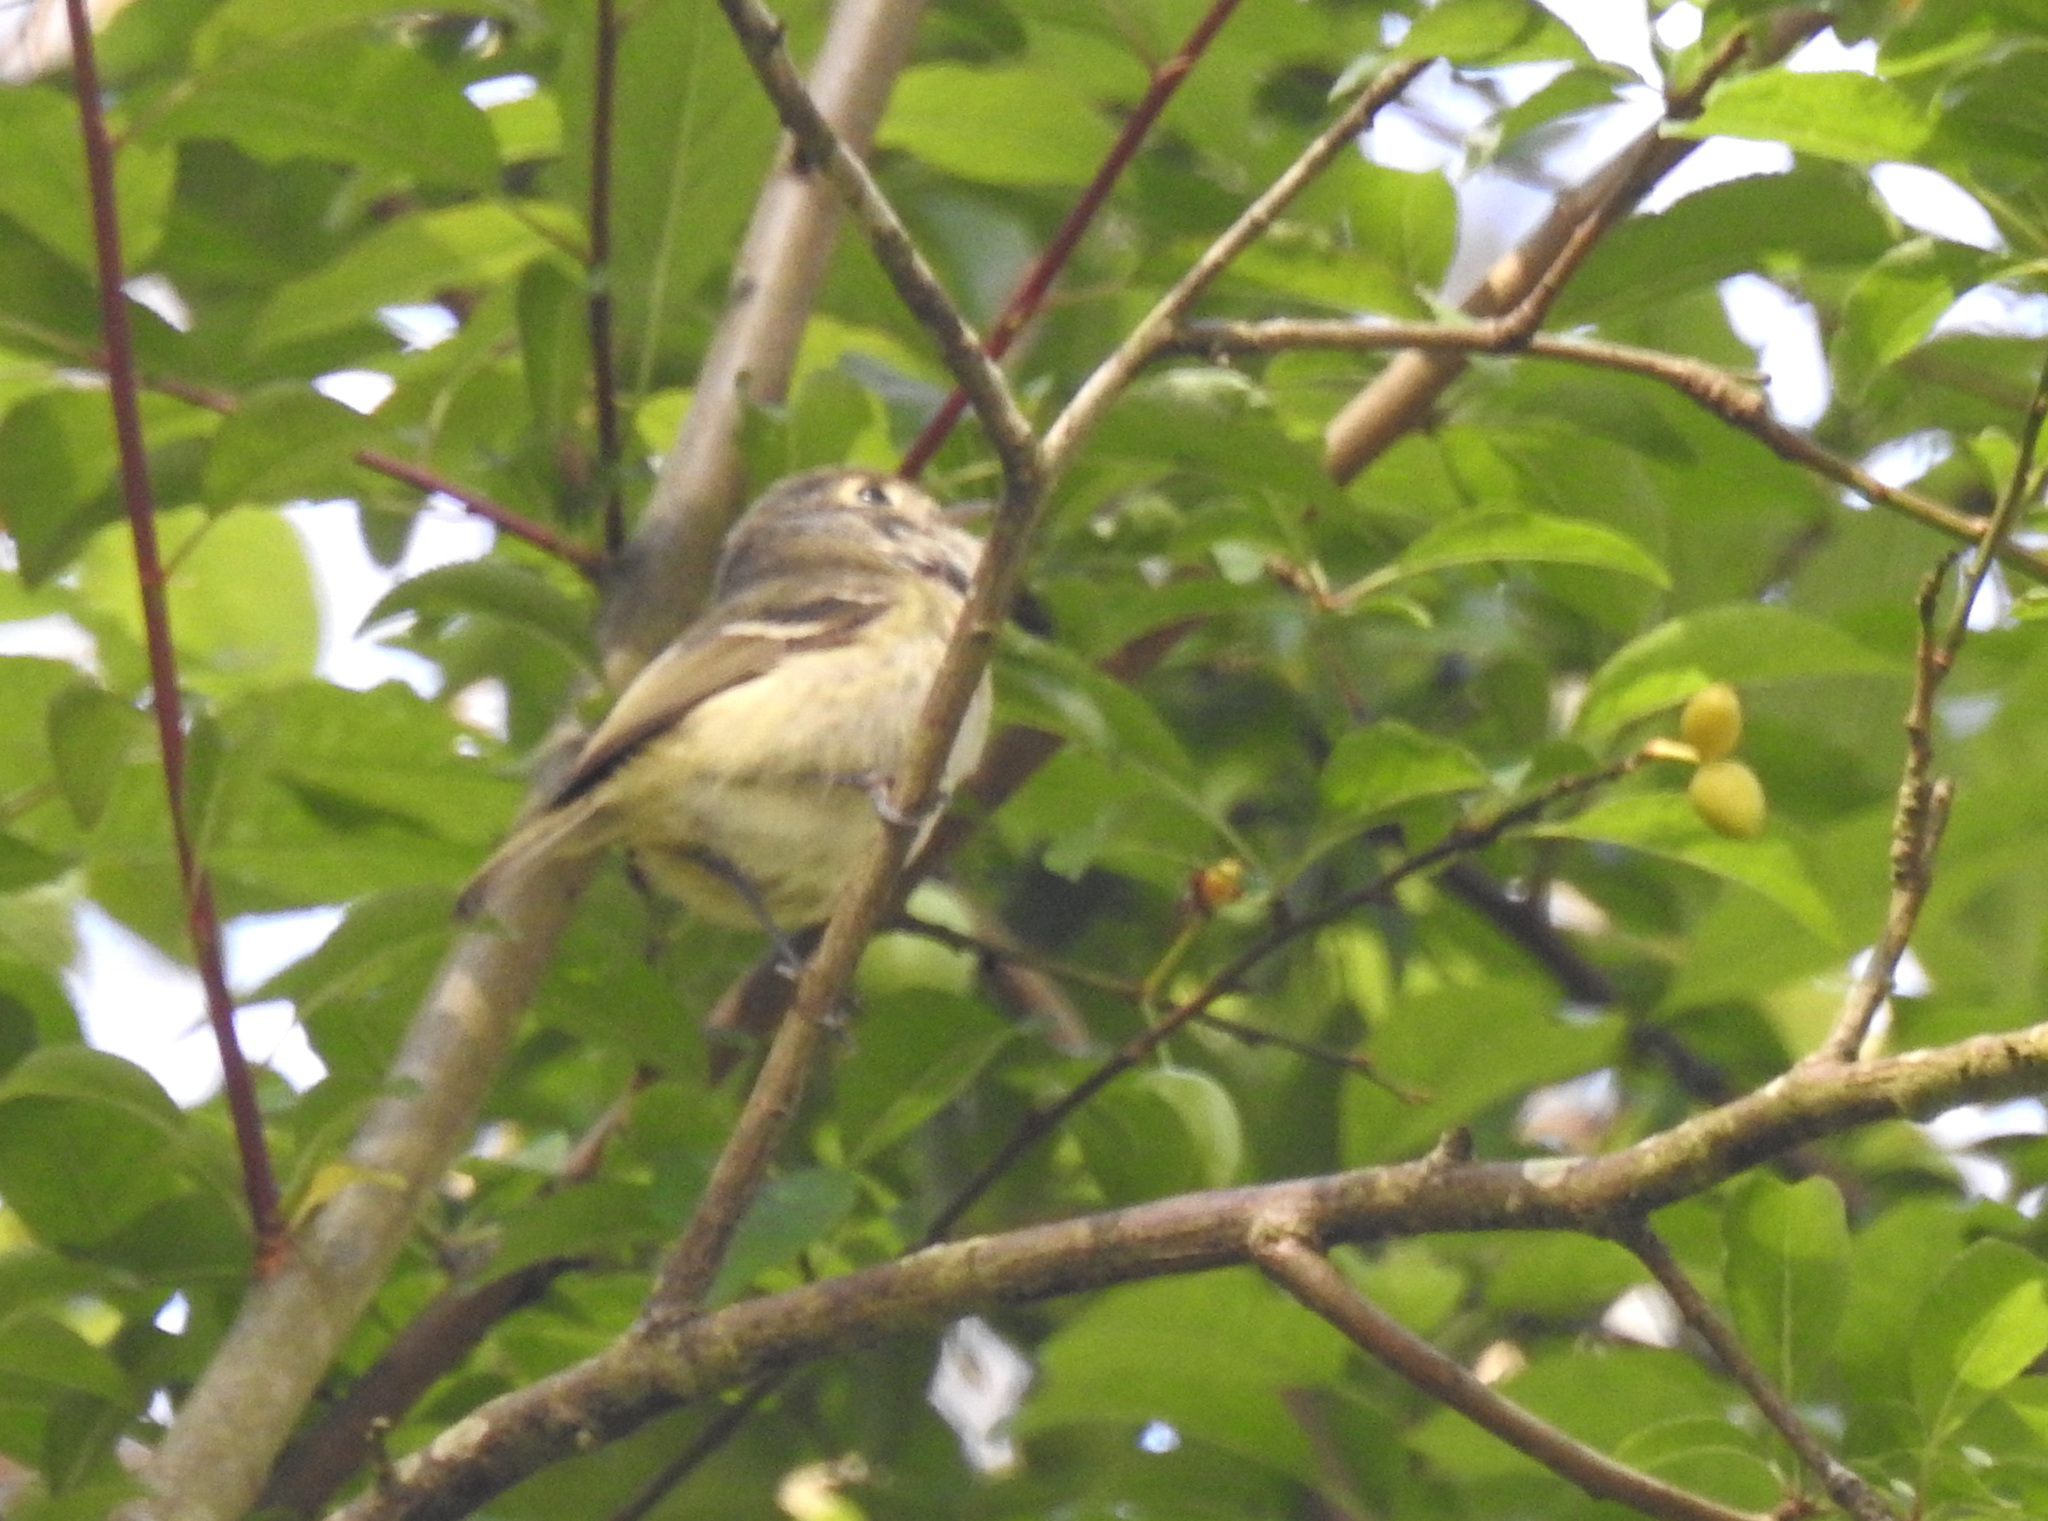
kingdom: Animalia
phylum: Chordata
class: Aves
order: Passeriformes
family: Vireonidae
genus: Vireo
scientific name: Vireo huttoni
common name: Hutton's vireo
